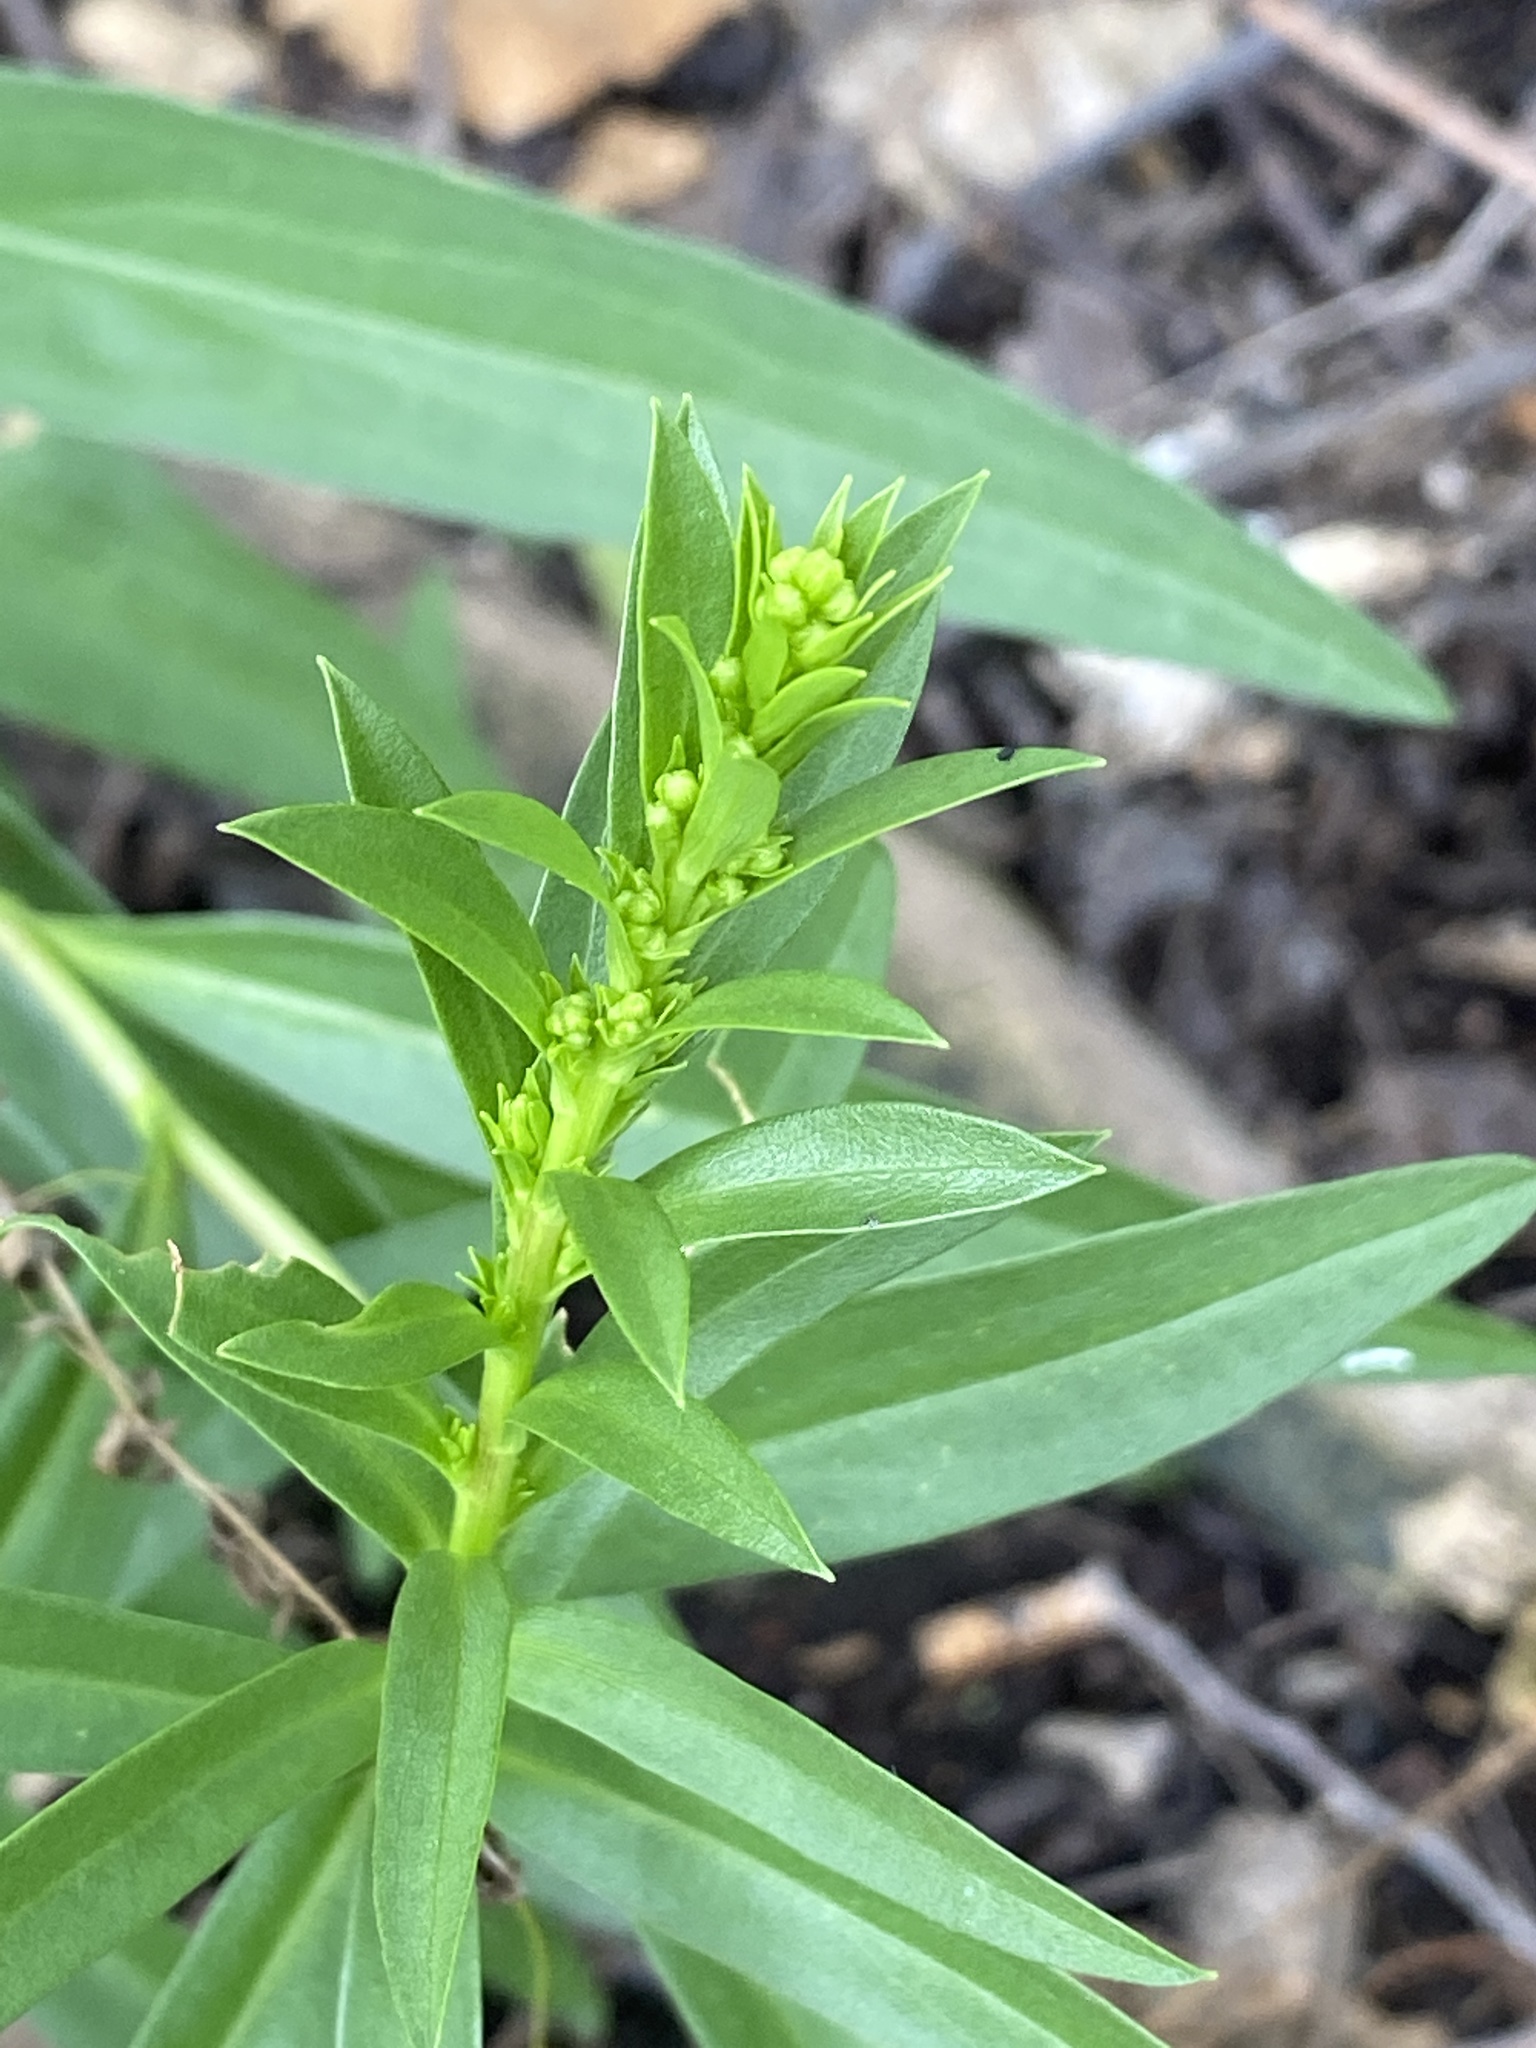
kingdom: Plantae
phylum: Tracheophyta
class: Magnoliopsida
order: Asterales
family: Asteraceae
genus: Solidago
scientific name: Solidago sempervirens
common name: Salt-marsh goldenrod
